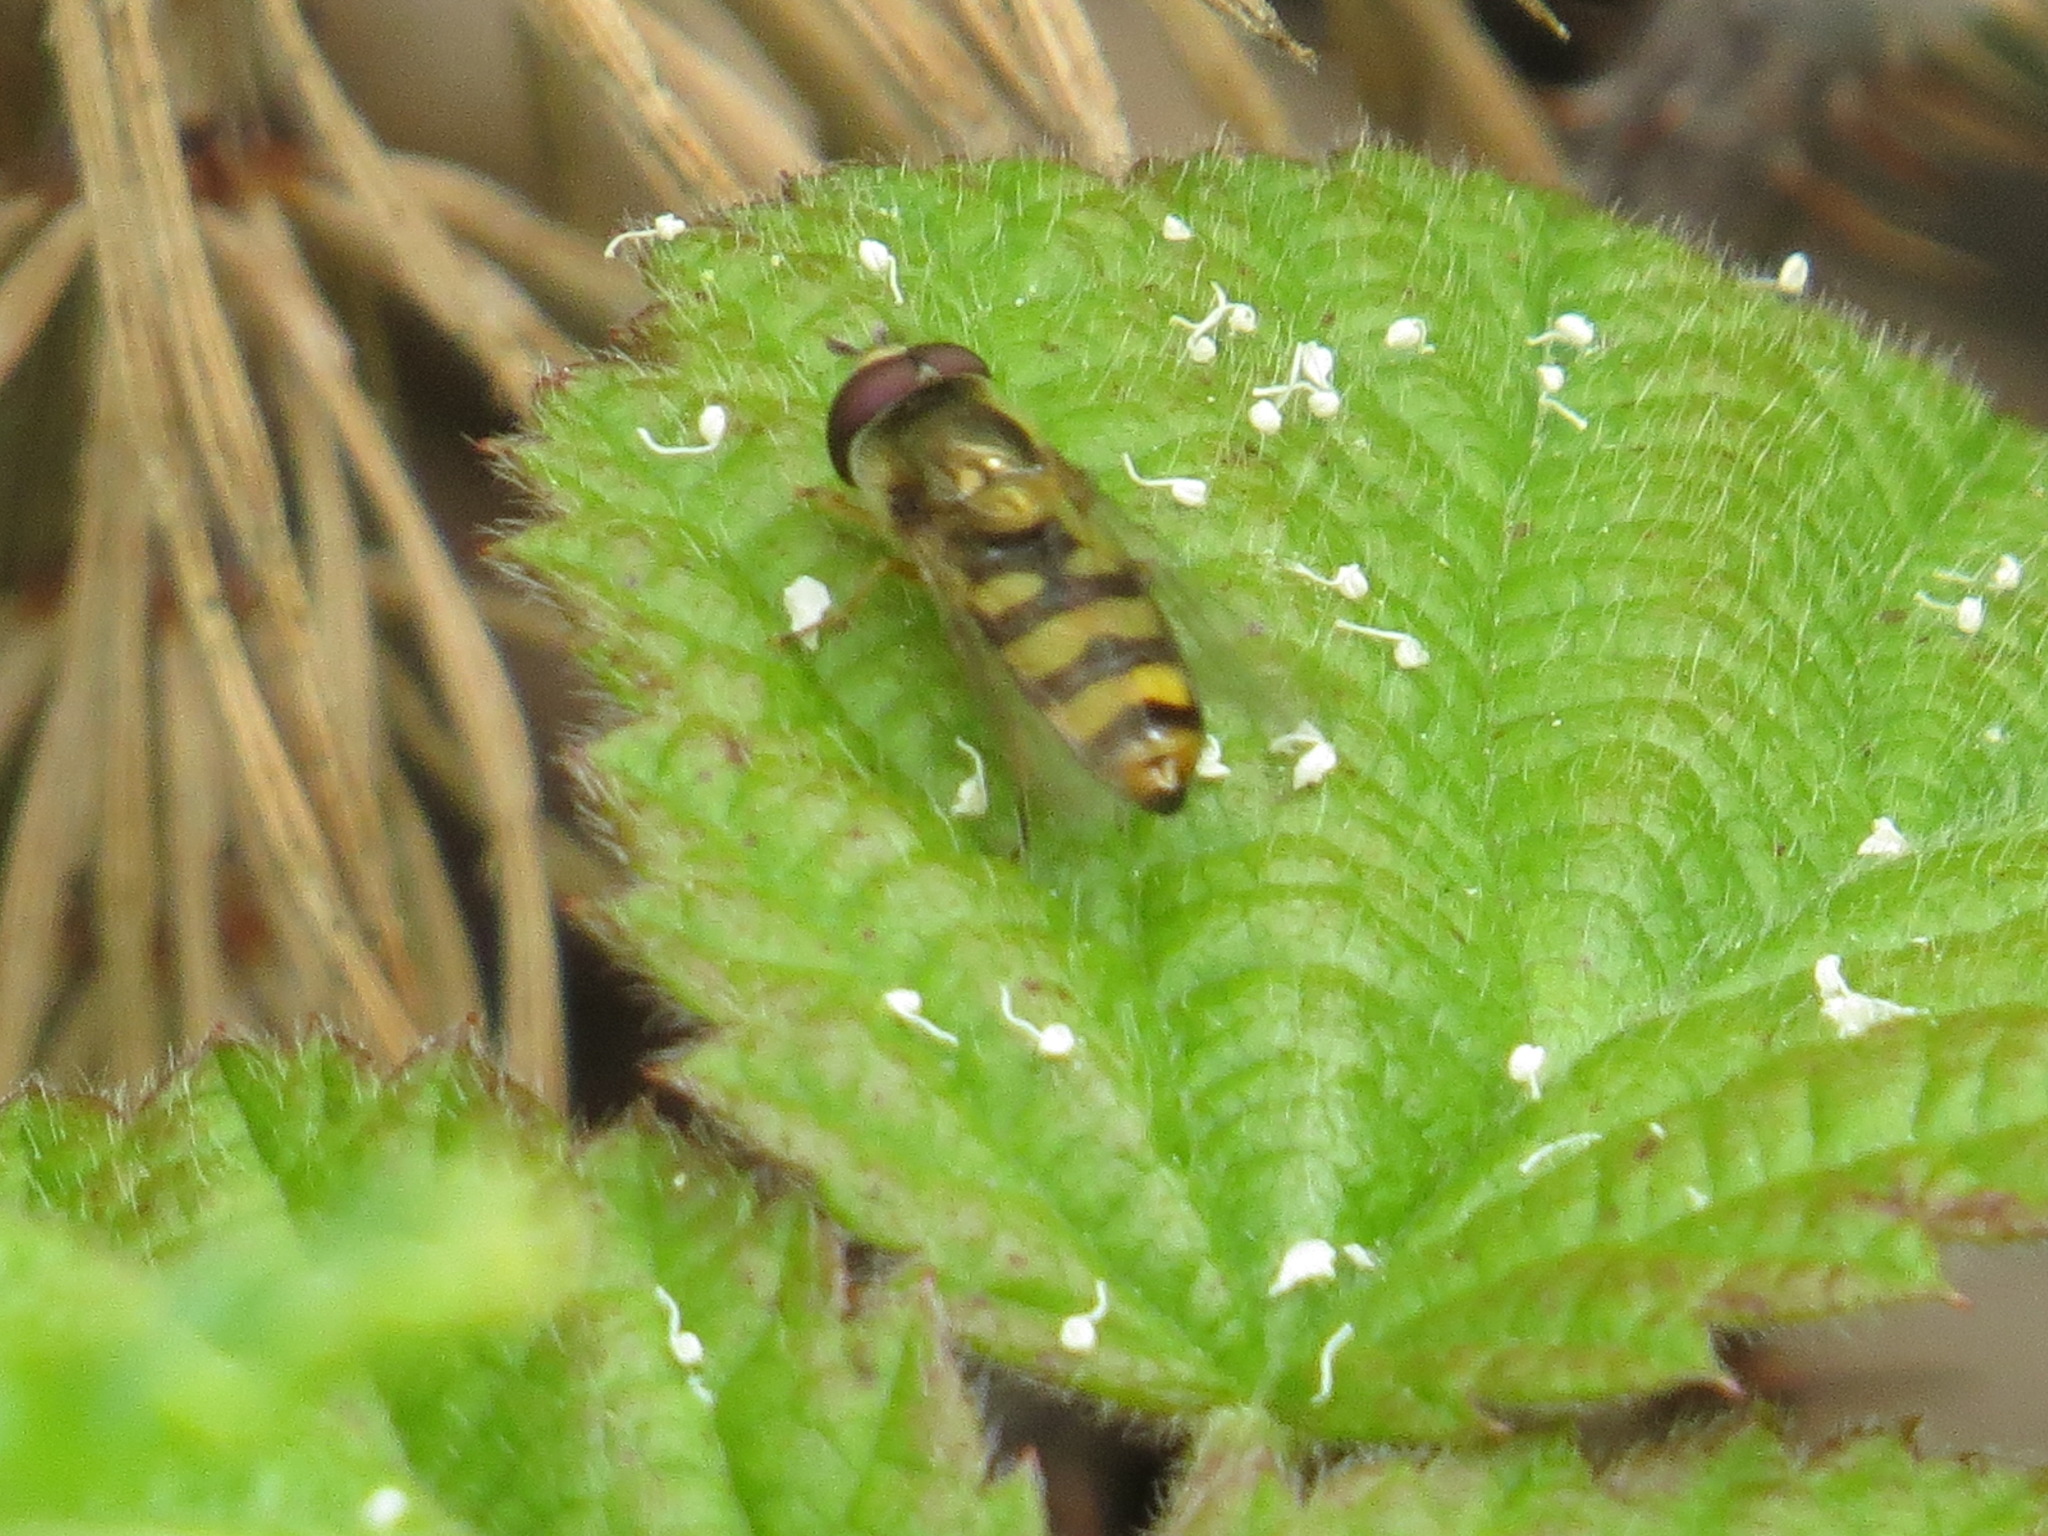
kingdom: Animalia
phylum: Arthropoda
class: Insecta
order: Diptera
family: Syrphidae
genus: Eupeodes
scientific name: Eupeodes fumipennis
